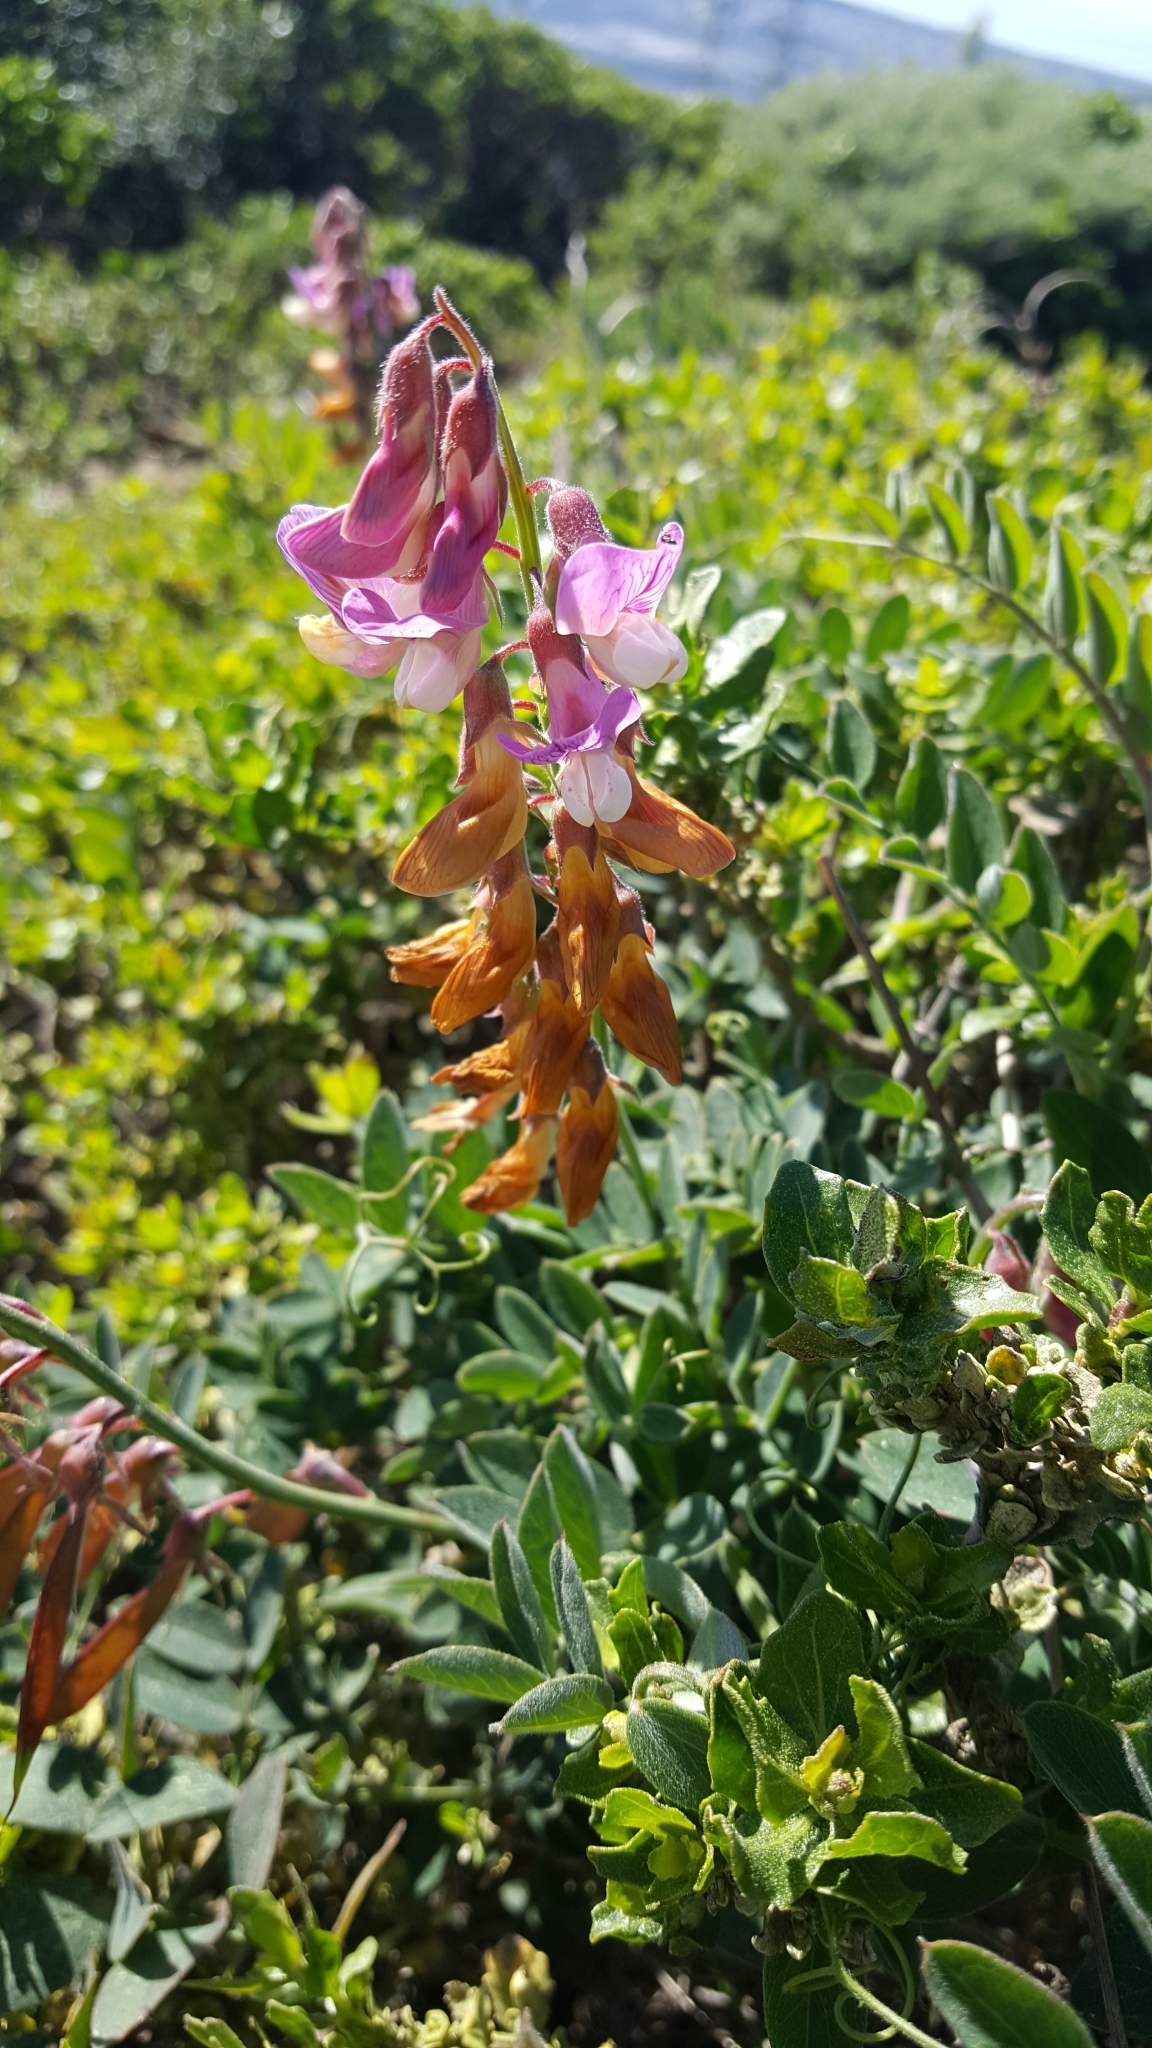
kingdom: Plantae
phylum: Tracheophyta
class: Magnoliopsida
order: Fabales
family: Fabaceae
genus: Lathyrus
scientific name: Lathyrus vestitus
